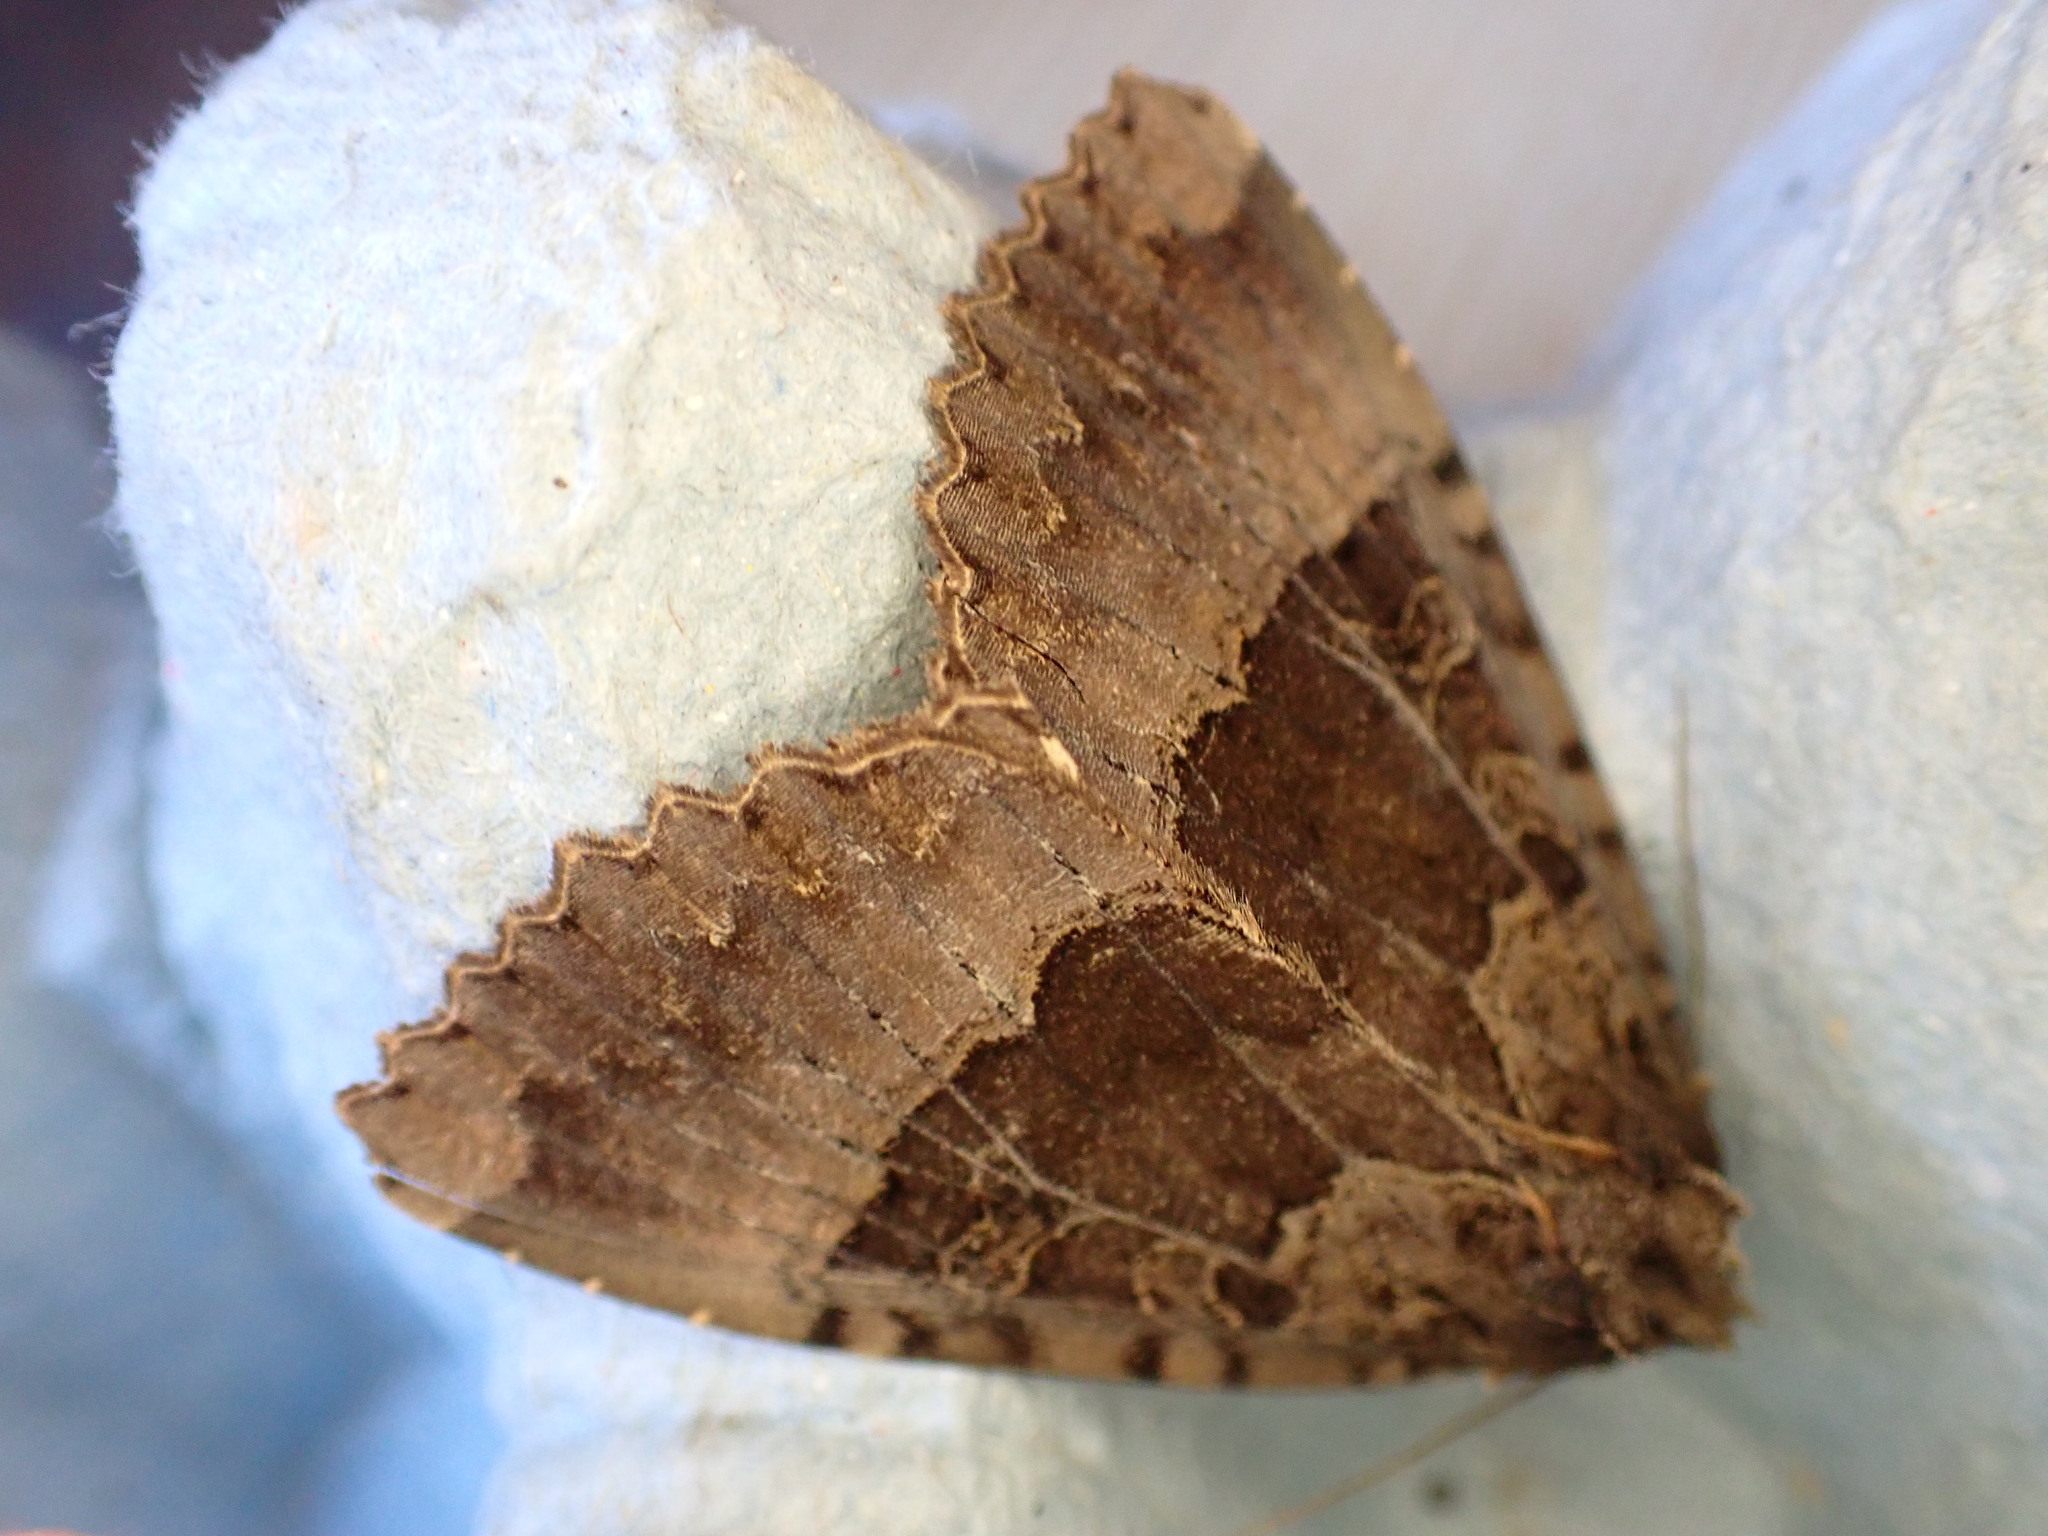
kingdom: Animalia
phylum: Arthropoda
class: Insecta
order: Lepidoptera
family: Noctuidae
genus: Mormo
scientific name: Mormo maura
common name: Old lady
